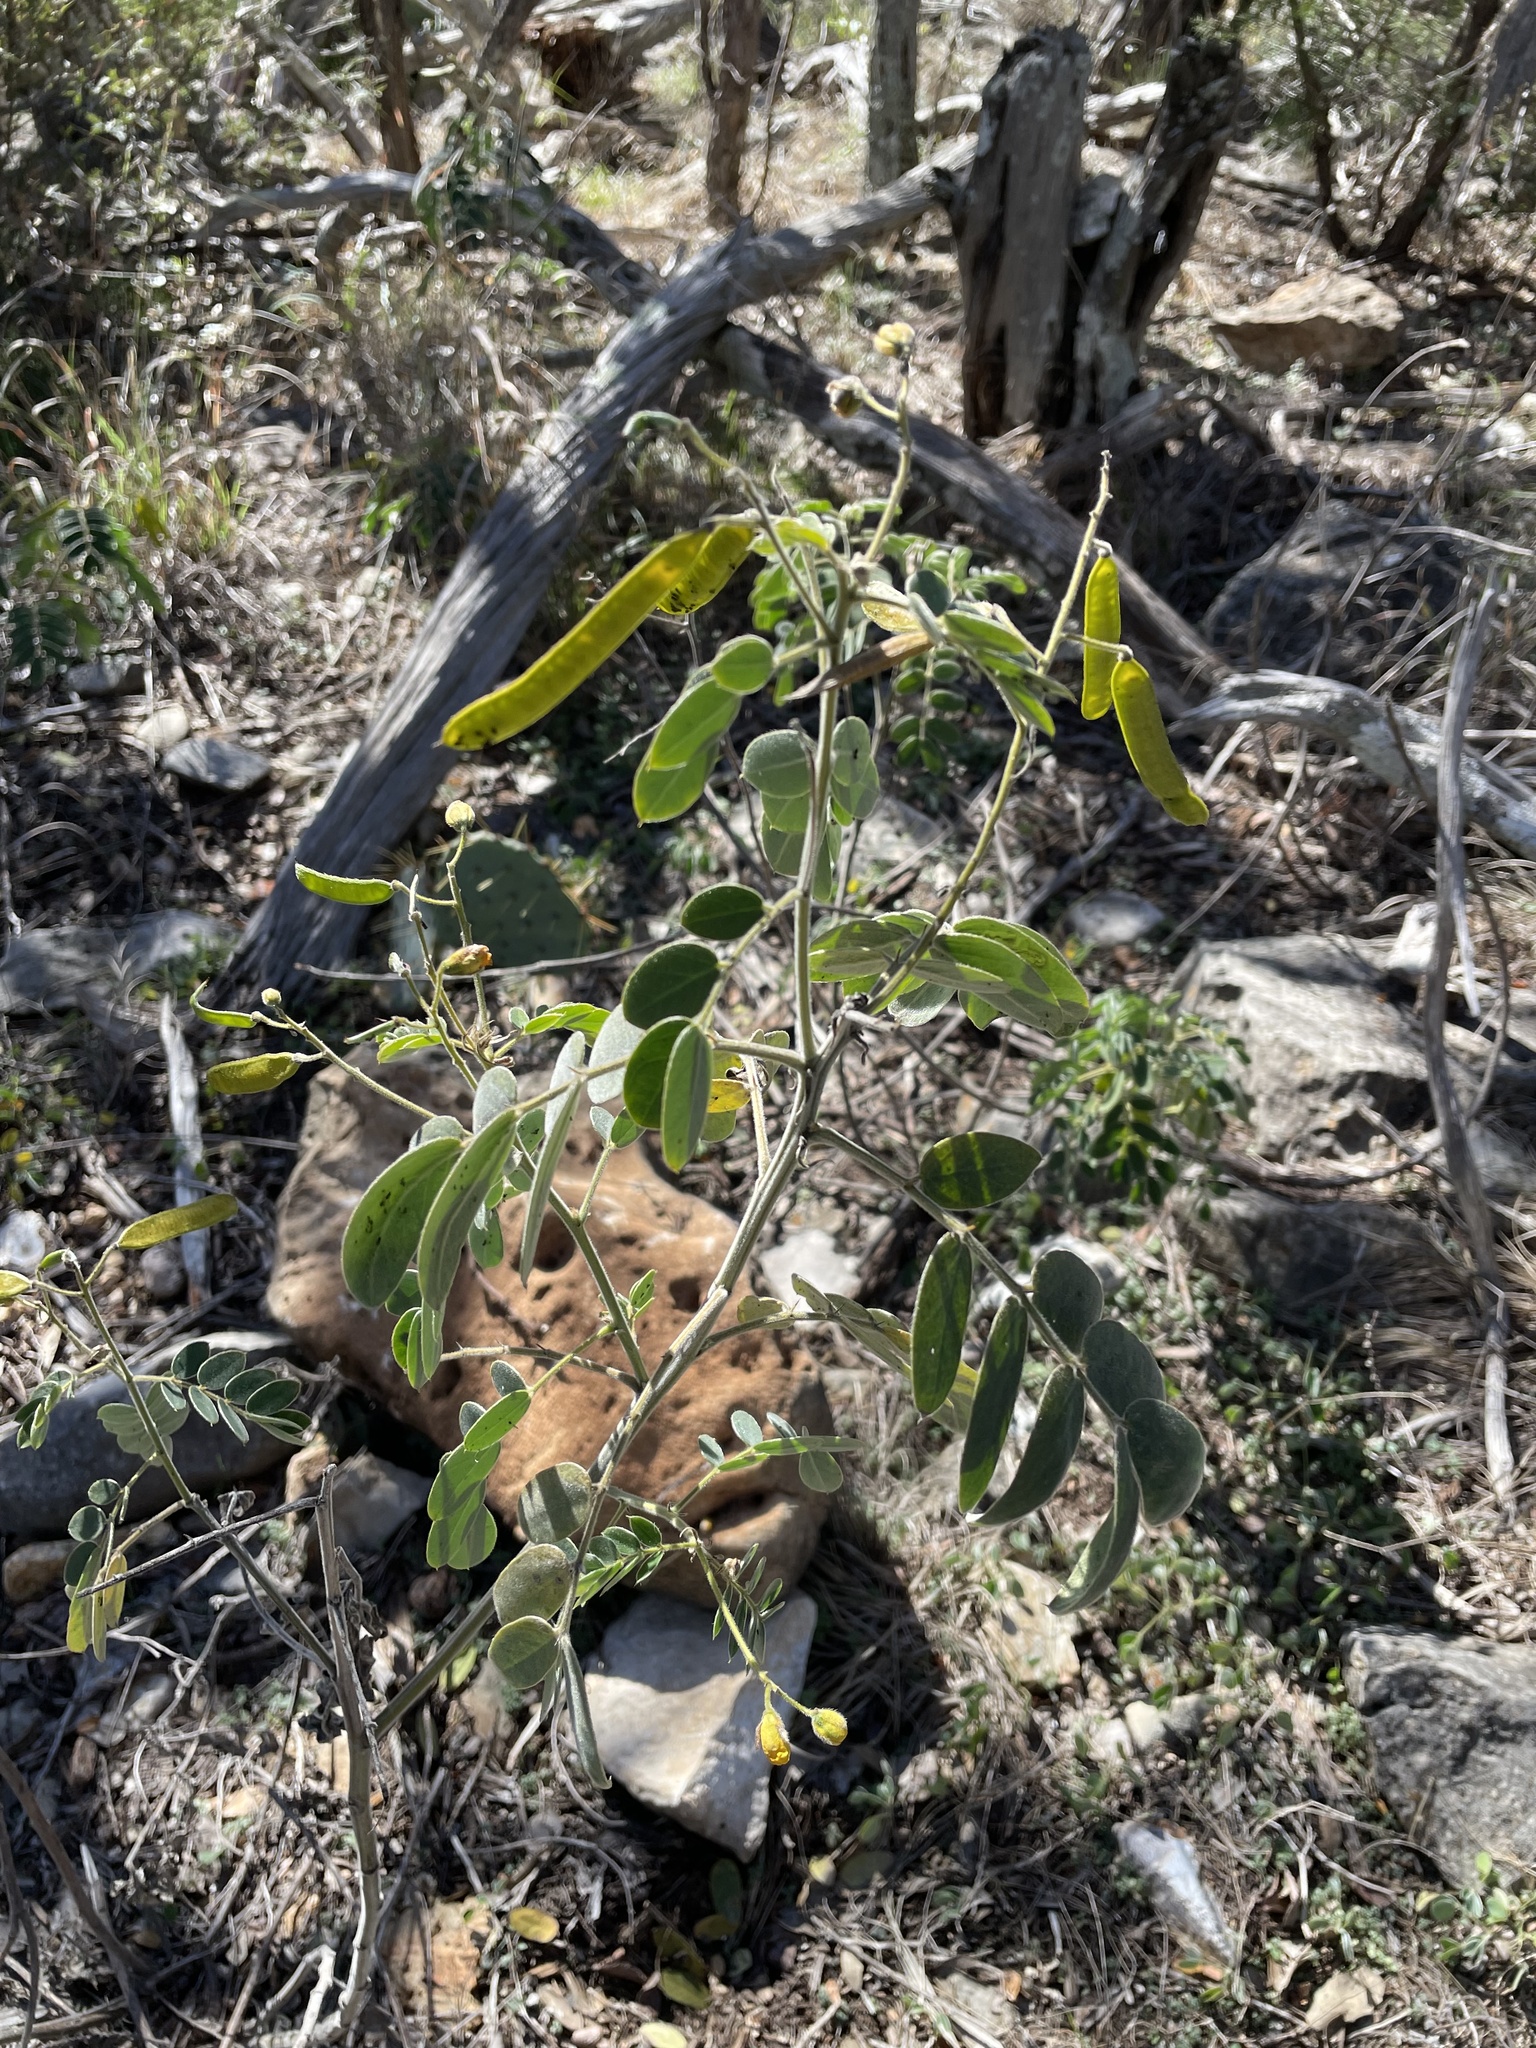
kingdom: Plantae
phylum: Tracheophyta
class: Magnoliopsida
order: Fabales
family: Fabaceae
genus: Senna
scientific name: Senna lindheimeriana
